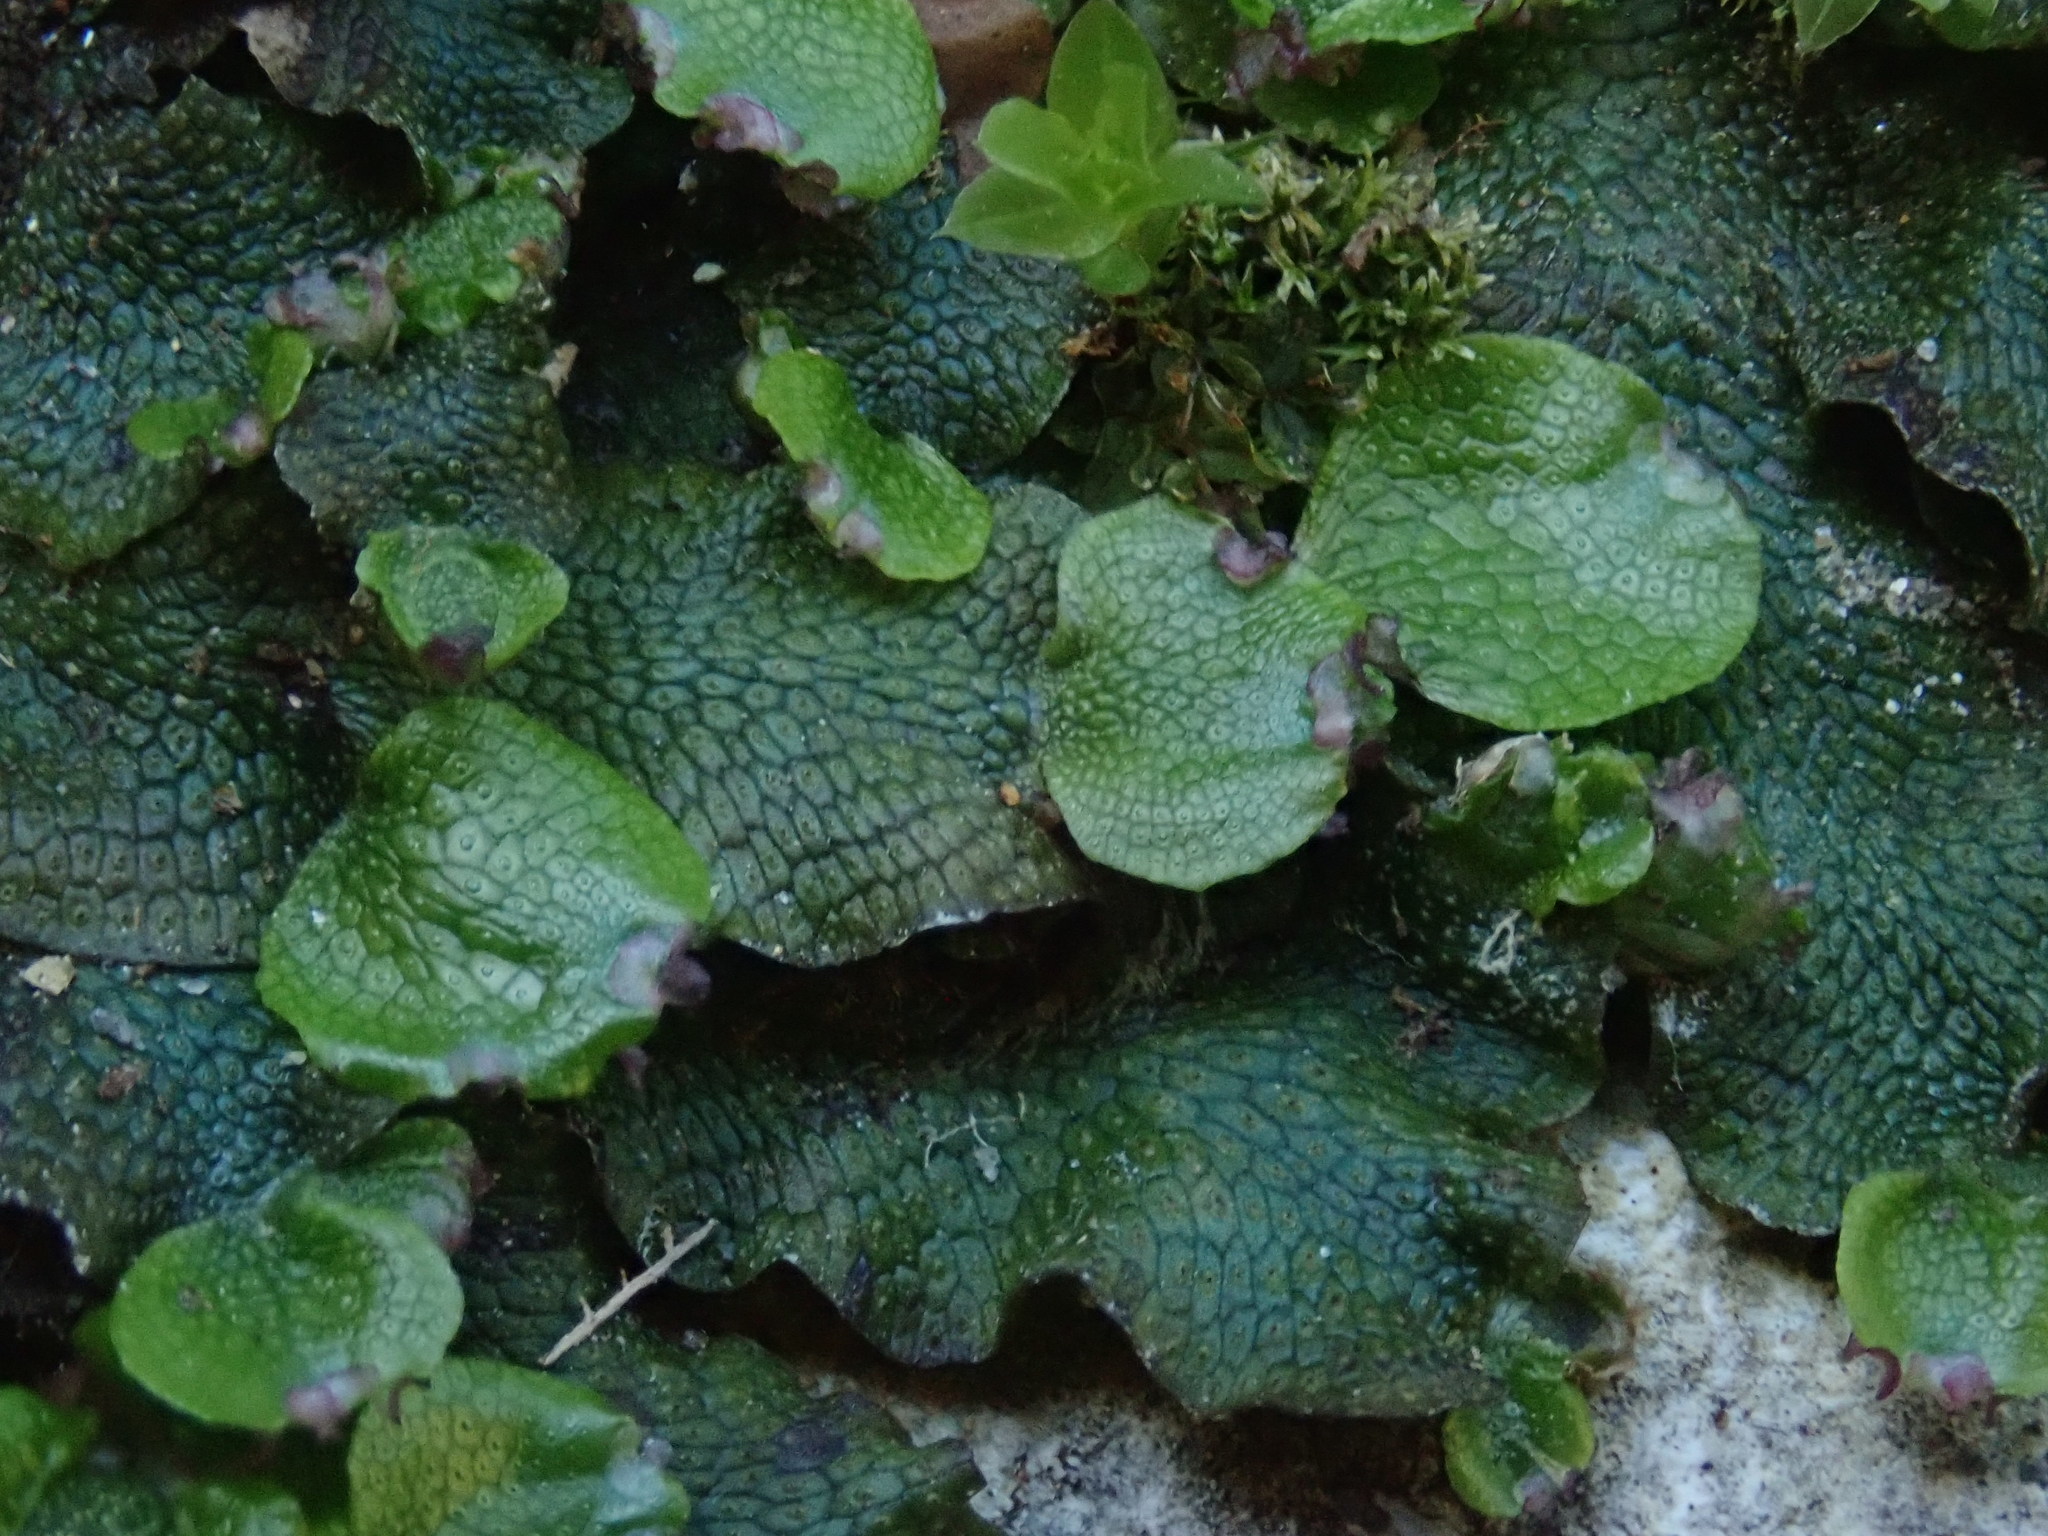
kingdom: Plantae
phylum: Marchantiophyta
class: Marchantiopsida
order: Marchantiales
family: Conocephalaceae
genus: Conocephalum
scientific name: Conocephalum salebrosum
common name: Cat-tongue liverwort
